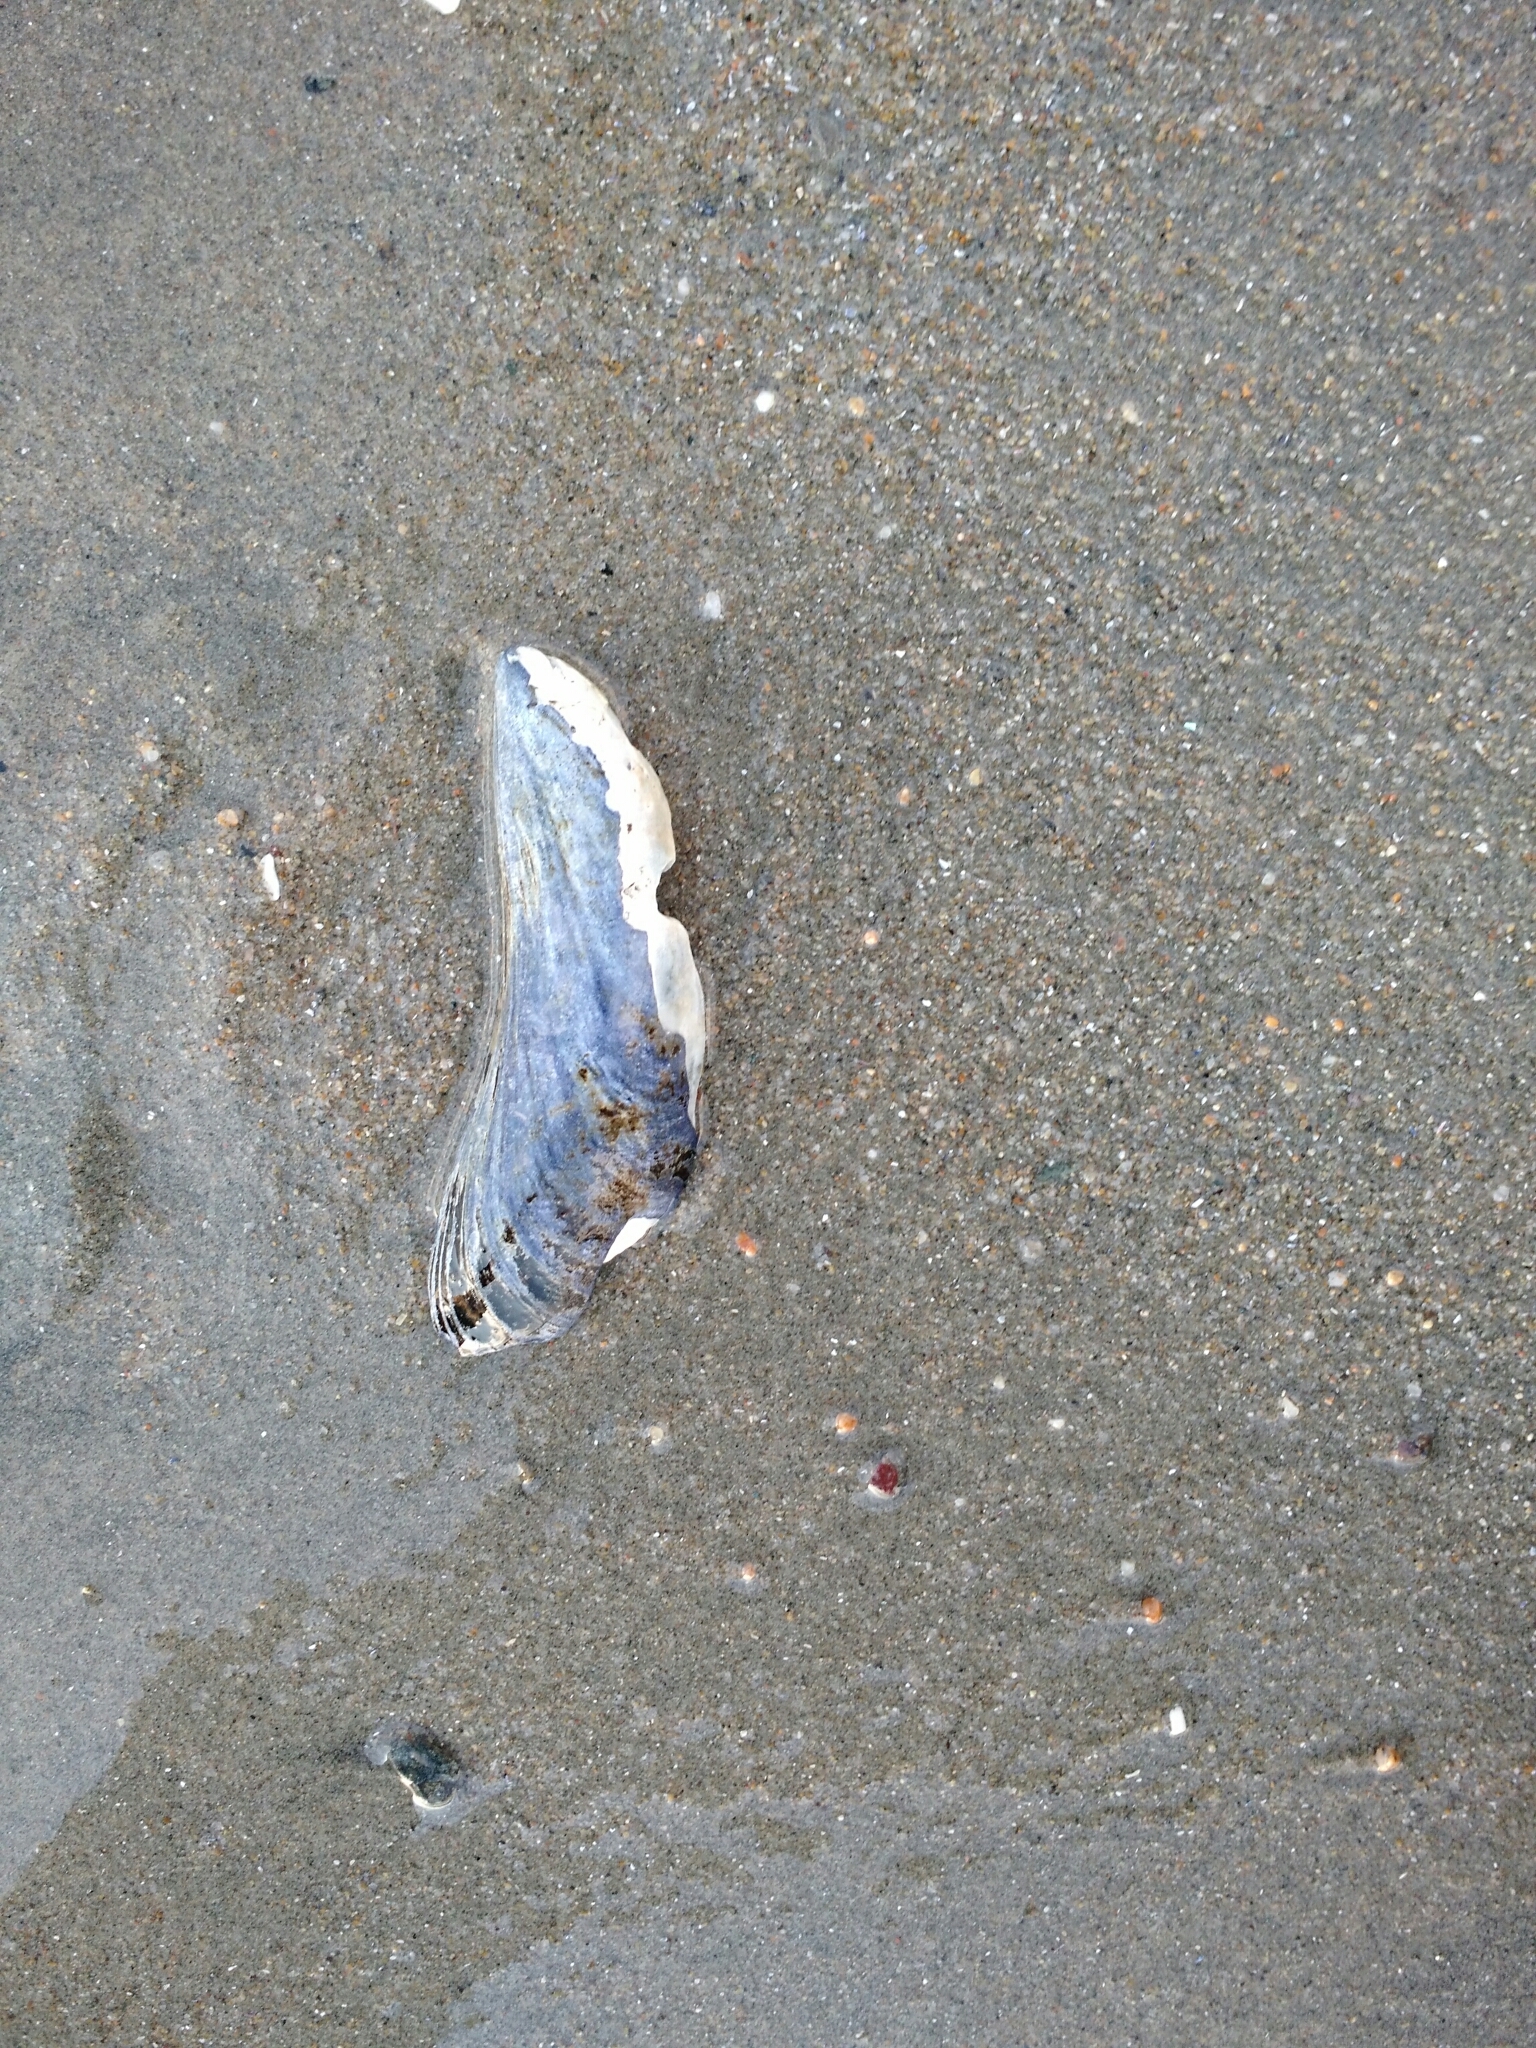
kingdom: Animalia
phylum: Mollusca
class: Bivalvia
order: Mytilida
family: Mytilidae
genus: Mytilus
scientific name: Mytilus edulis
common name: Blue mussel
